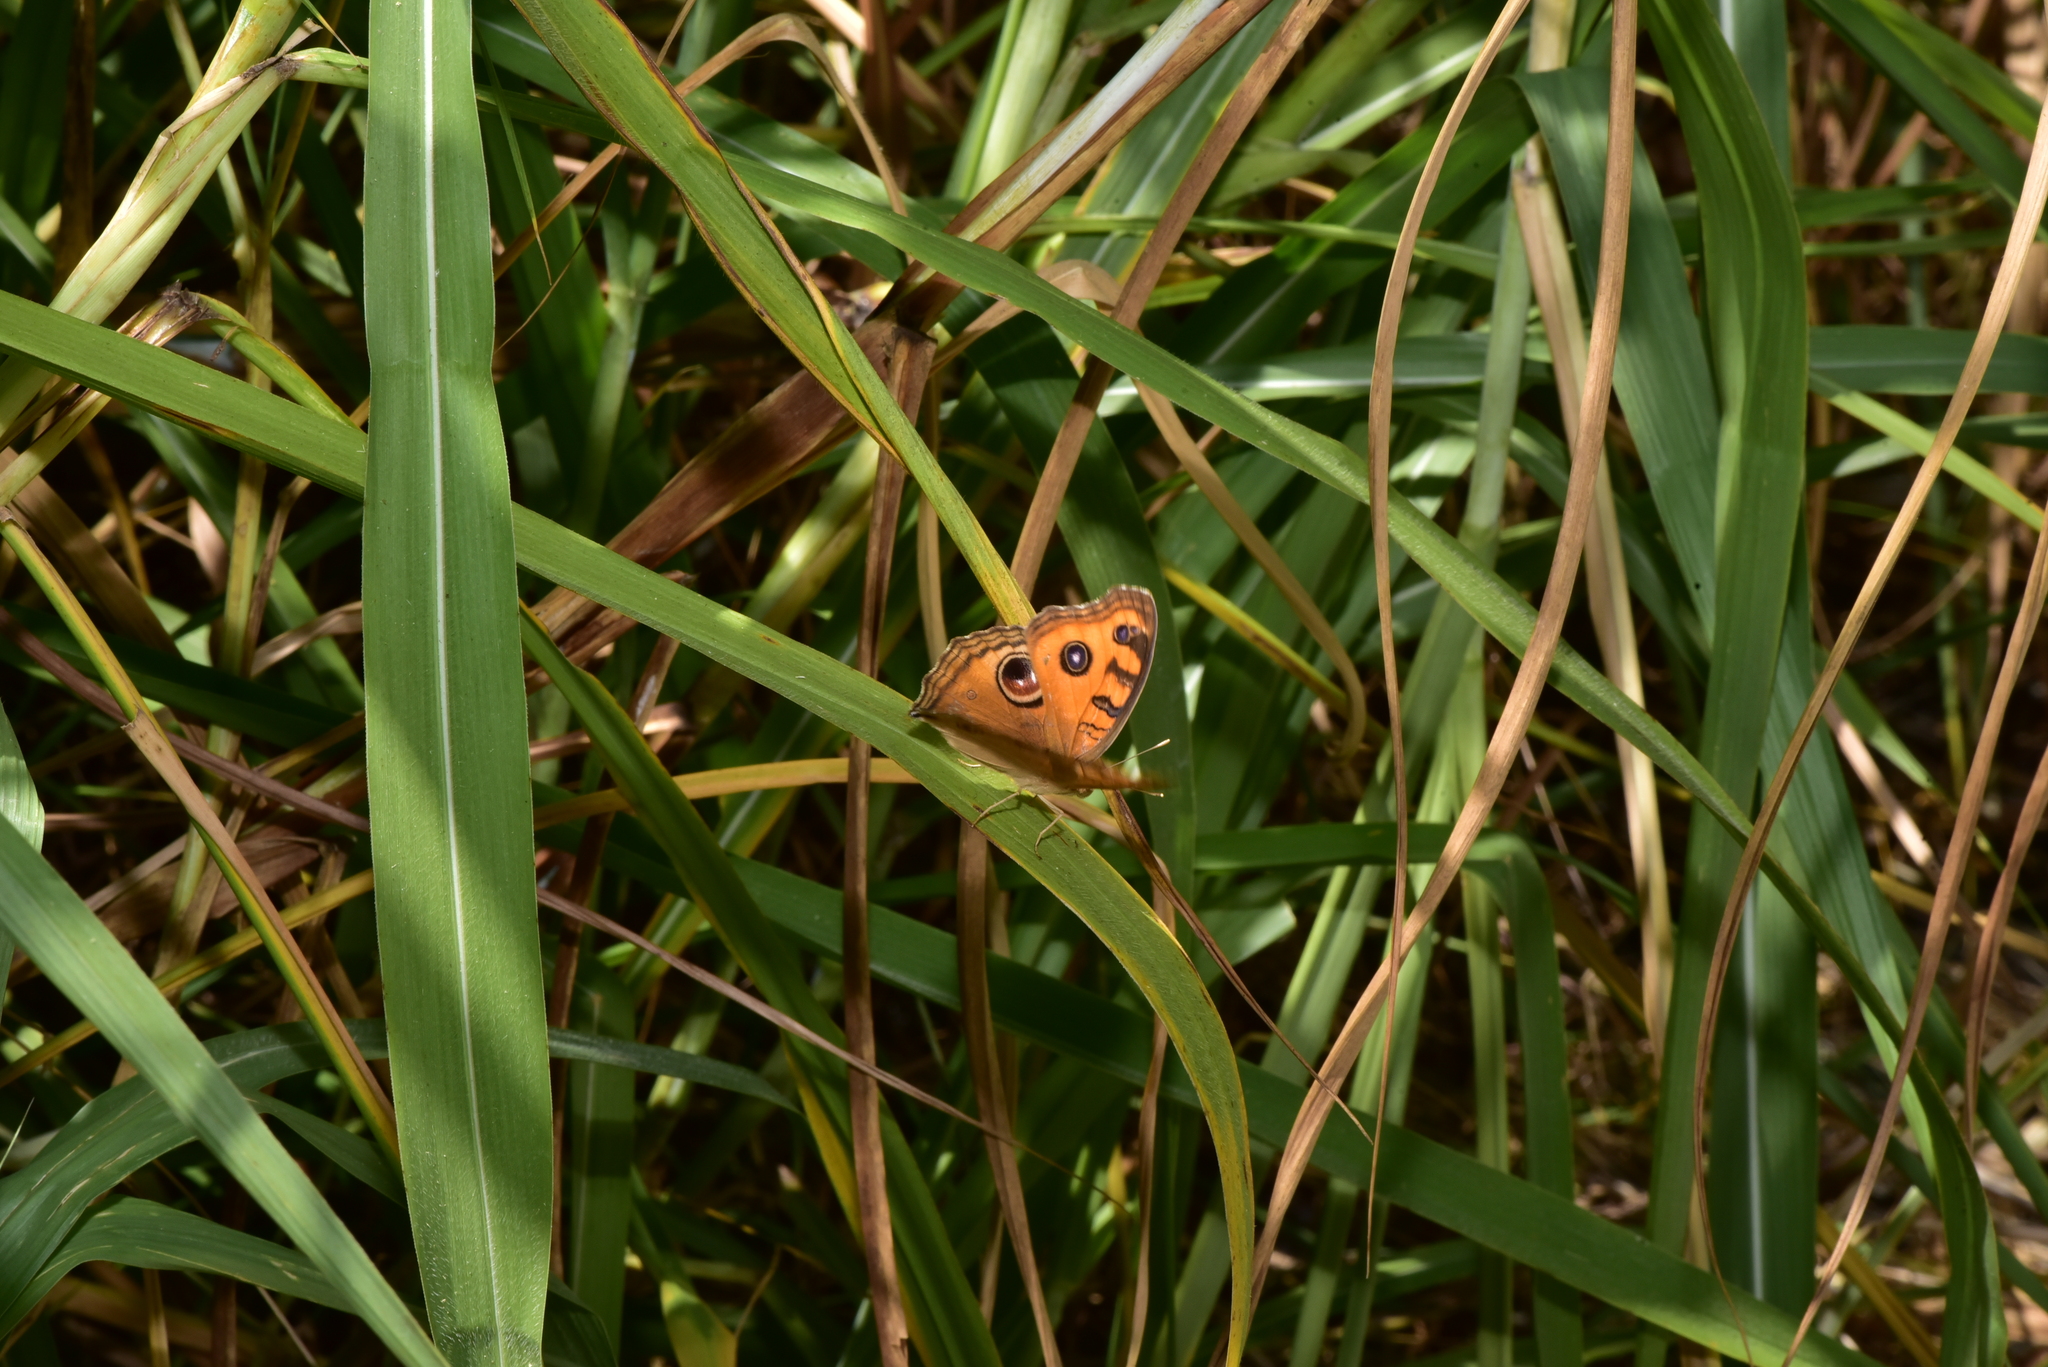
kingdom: Animalia
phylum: Arthropoda
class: Insecta
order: Lepidoptera
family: Nymphalidae
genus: Junonia
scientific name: Junonia almana
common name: Peacock pansy
